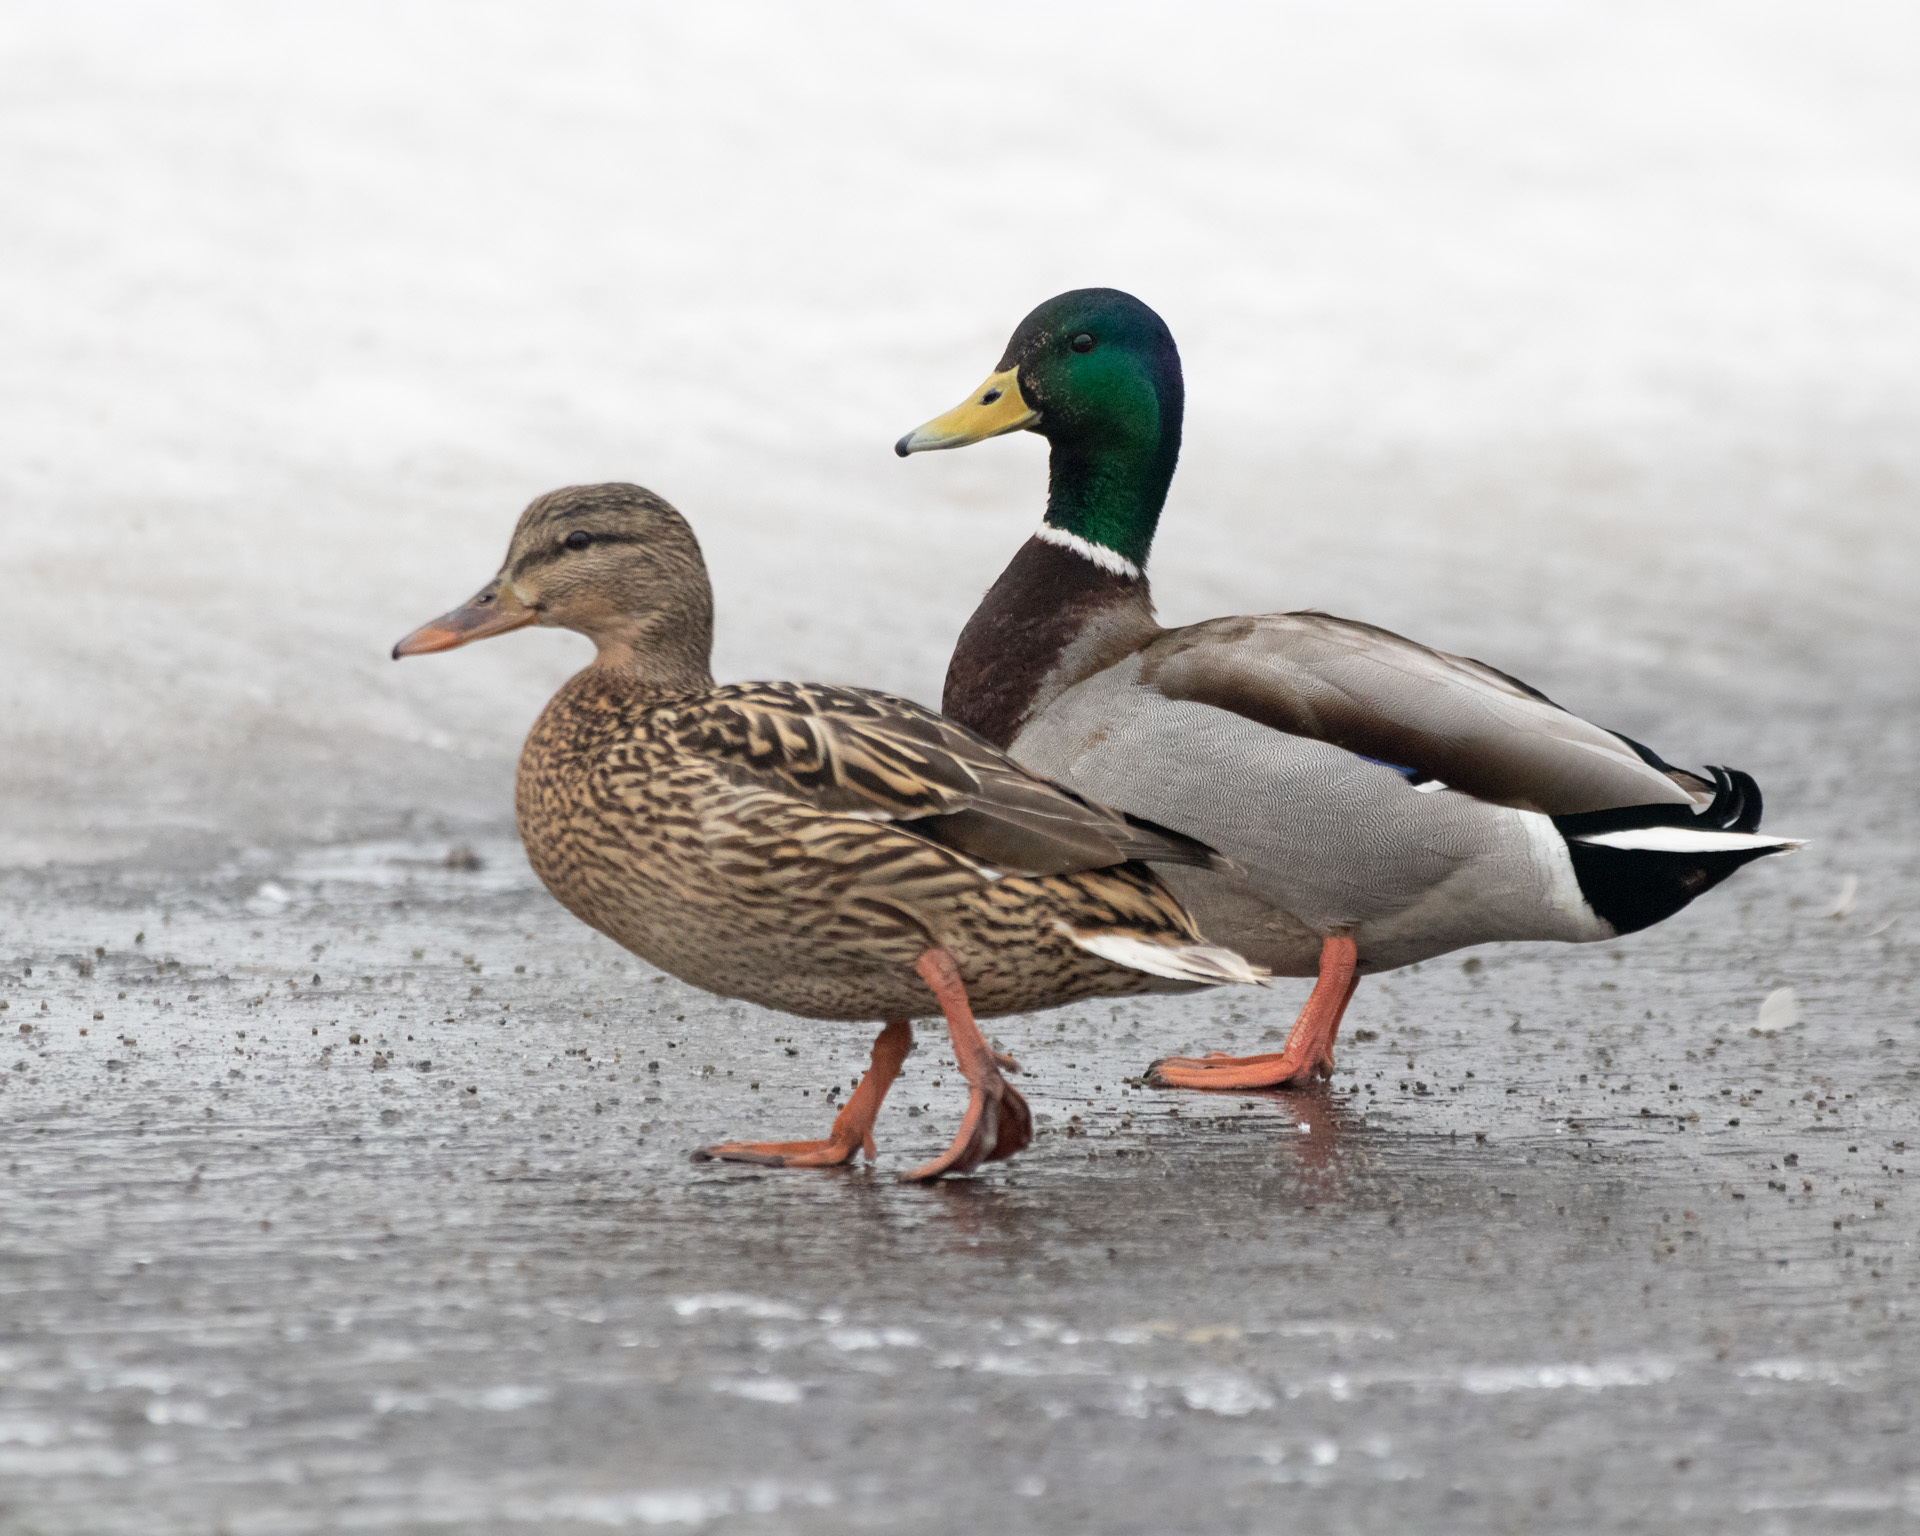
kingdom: Animalia
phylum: Chordata
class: Aves
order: Anseriformes
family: Anatidae
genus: Anas
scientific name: Anas platyrhynchos
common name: Mallard
